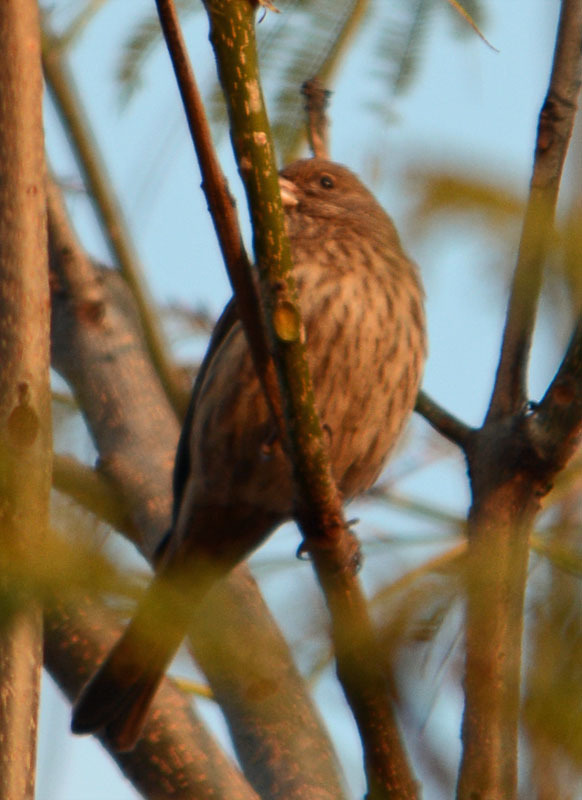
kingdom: Animalia
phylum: Chordata
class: Aves
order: Passeriformes
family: Fringillidae
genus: Haemorhous
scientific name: Haemorhous mexicanus
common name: House finch
